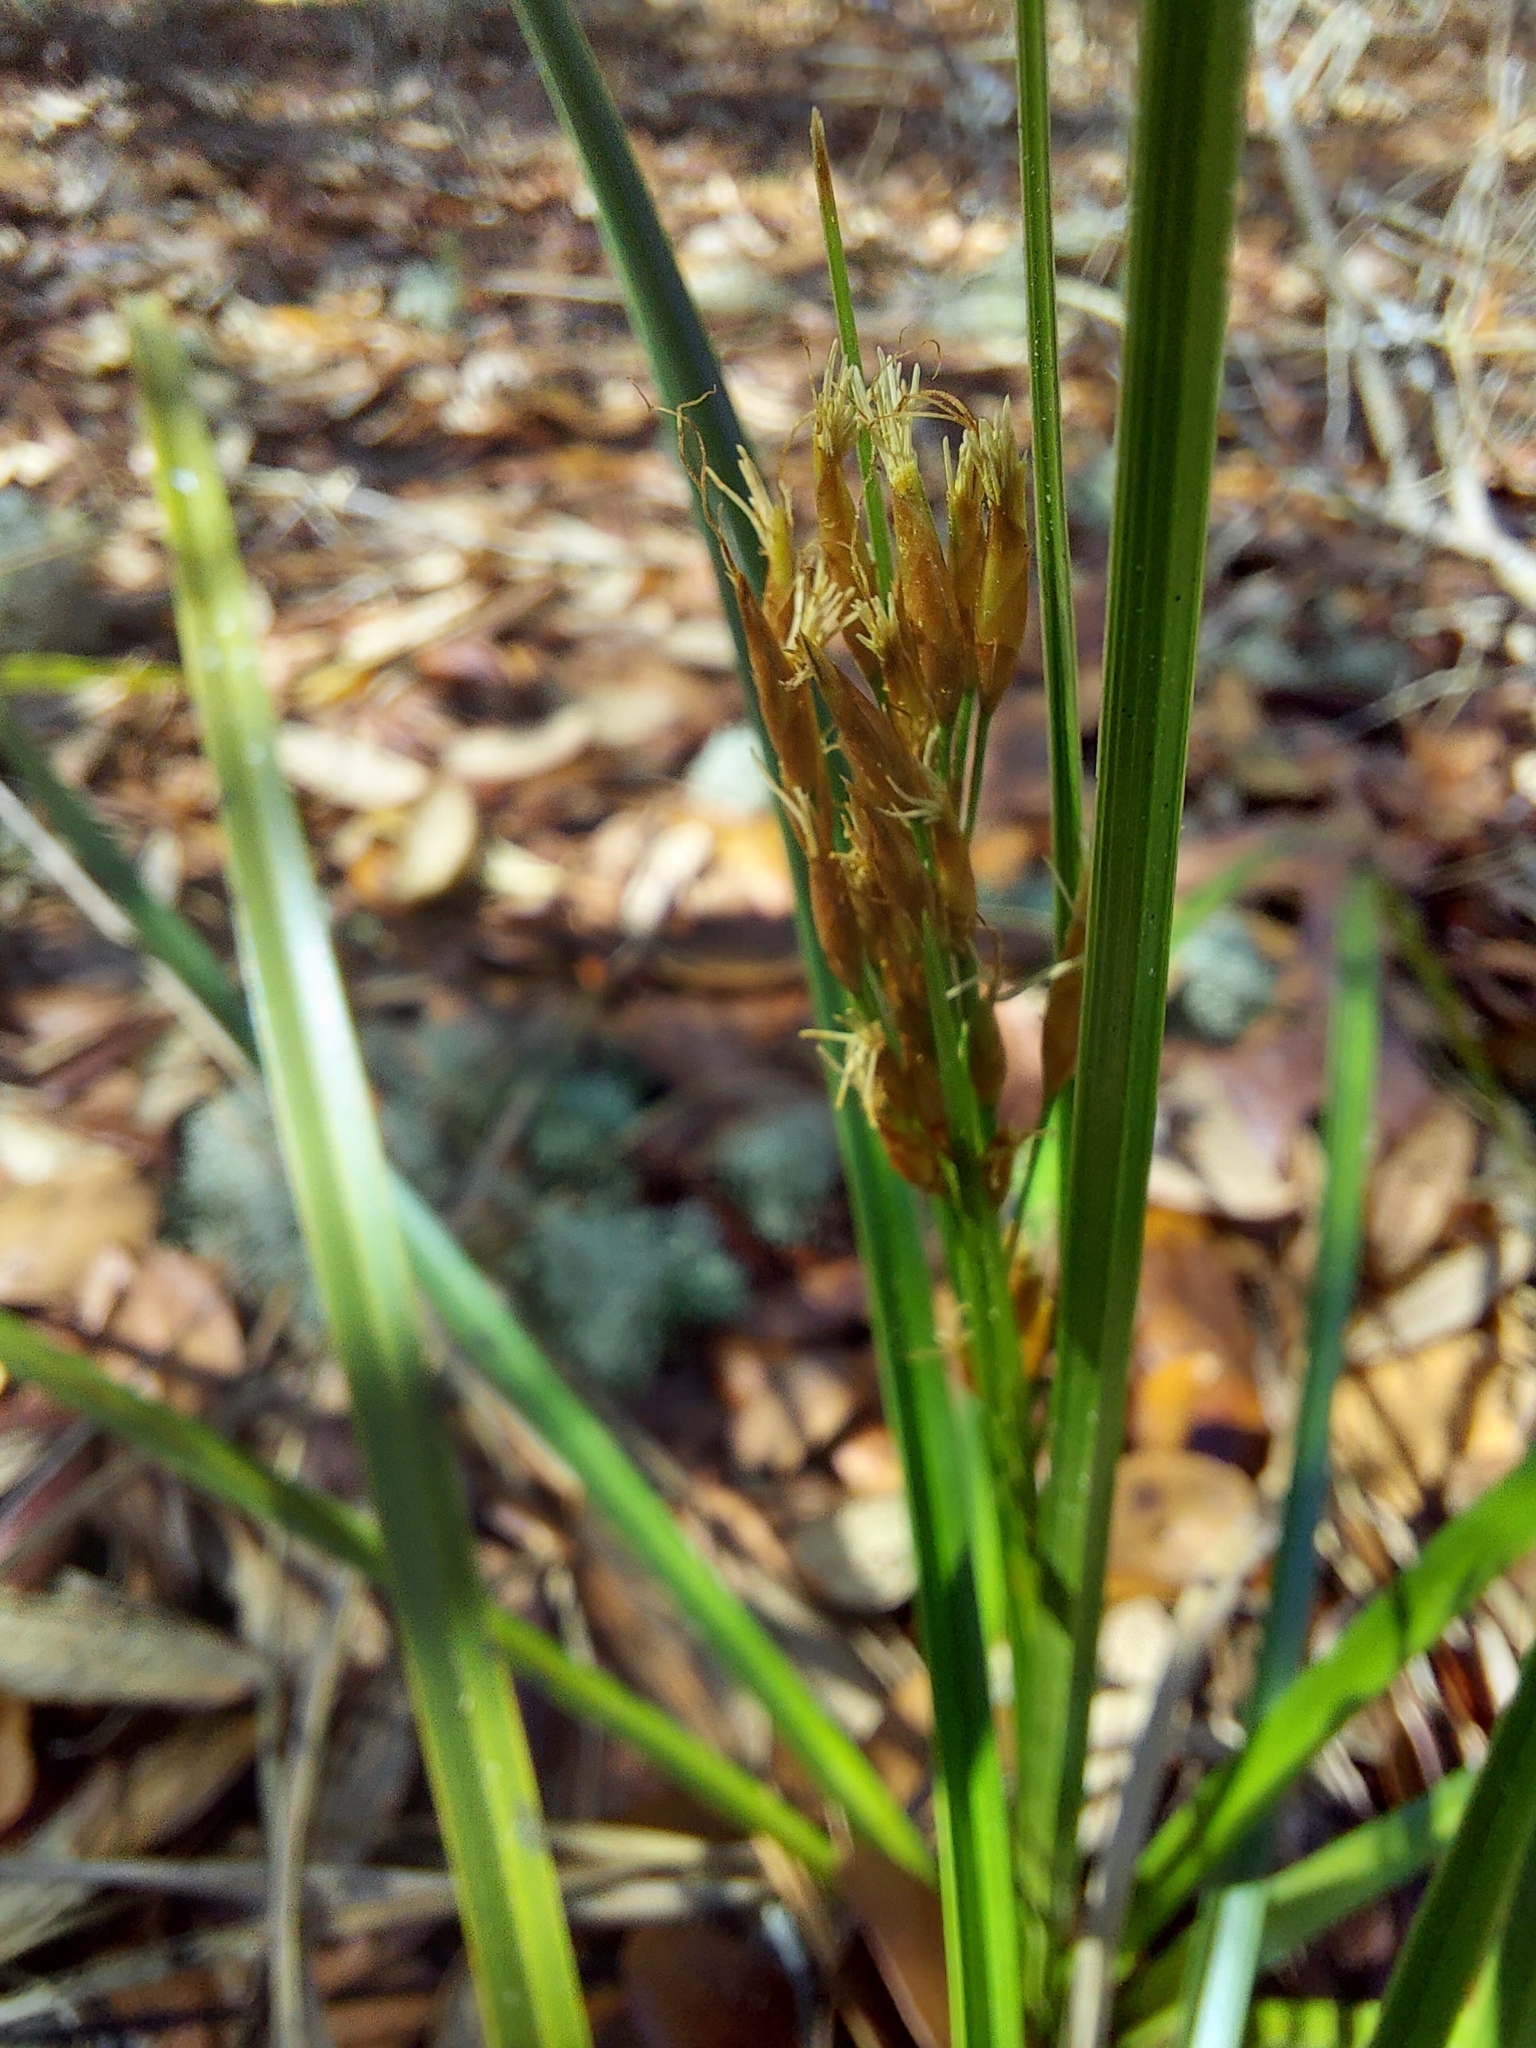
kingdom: Plantae
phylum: Tracheophyta
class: Liliopsida
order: Poales
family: Cyperaceae
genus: Rhynchospora
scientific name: Rhynchospora megalocarpa
